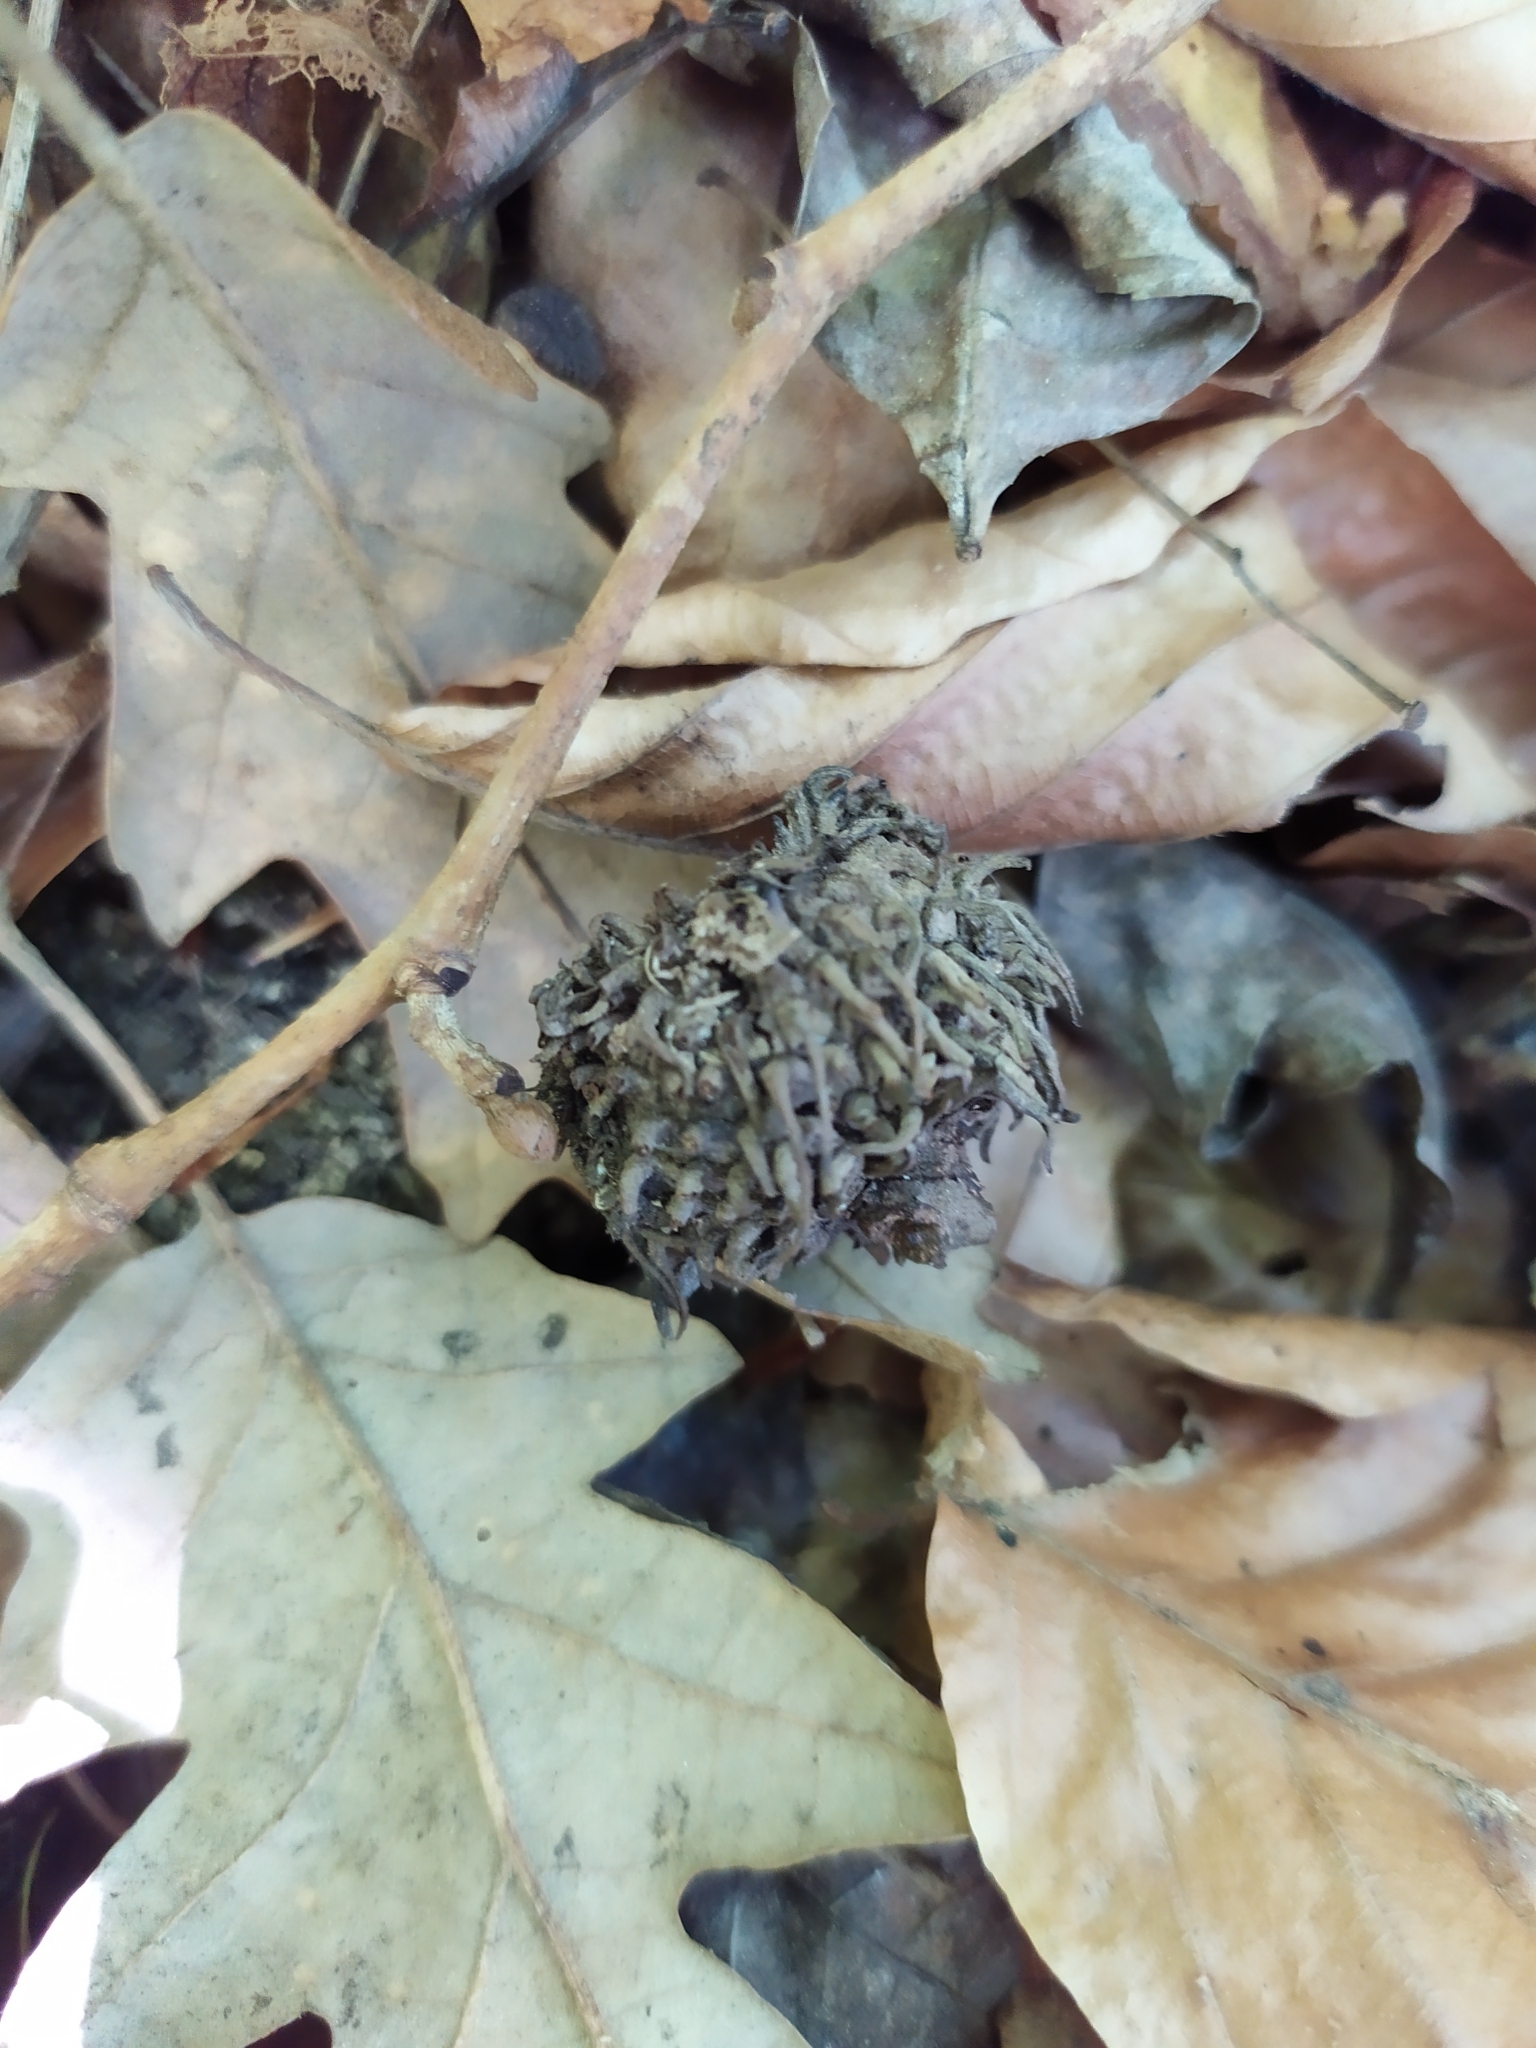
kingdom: Plantae
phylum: Tracheophyta
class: Magnoliopsida
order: Fagales
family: Fagaceae
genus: Quercus
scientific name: Quercus cerris
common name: Turkey oak
